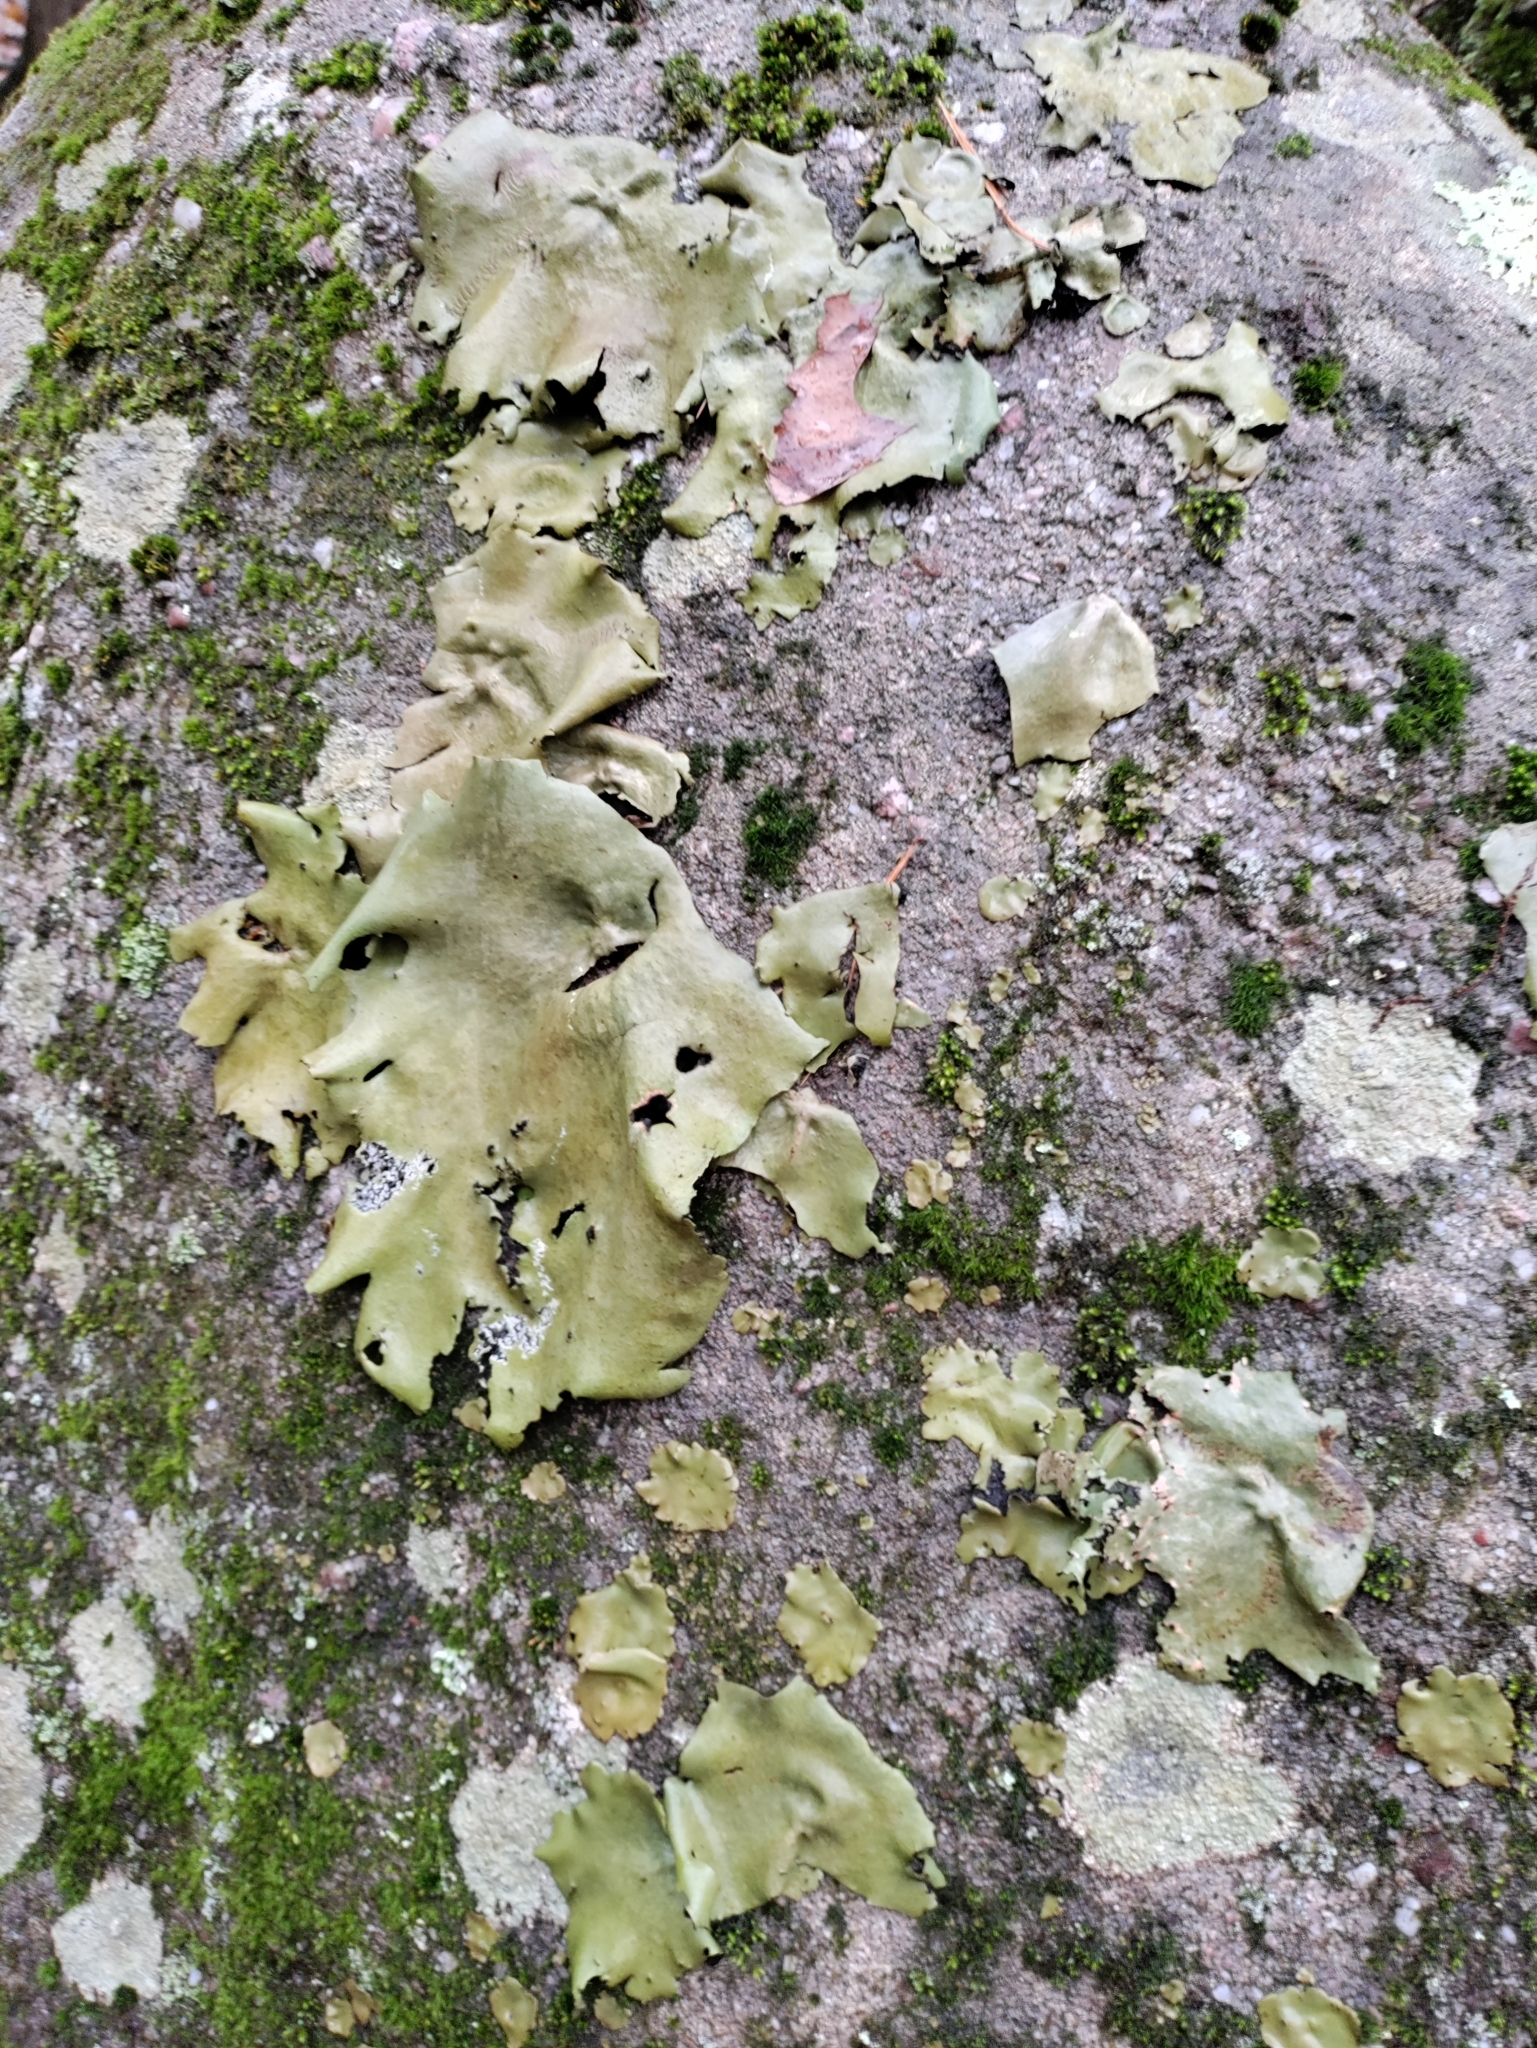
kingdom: Fungi
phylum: Ascomycota
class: Lecanoromycetes
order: Umbilicariales
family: Umbilicariaceae
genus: Umbilicaria
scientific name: Umbilicaria mammulata
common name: Smooth rock tripe
